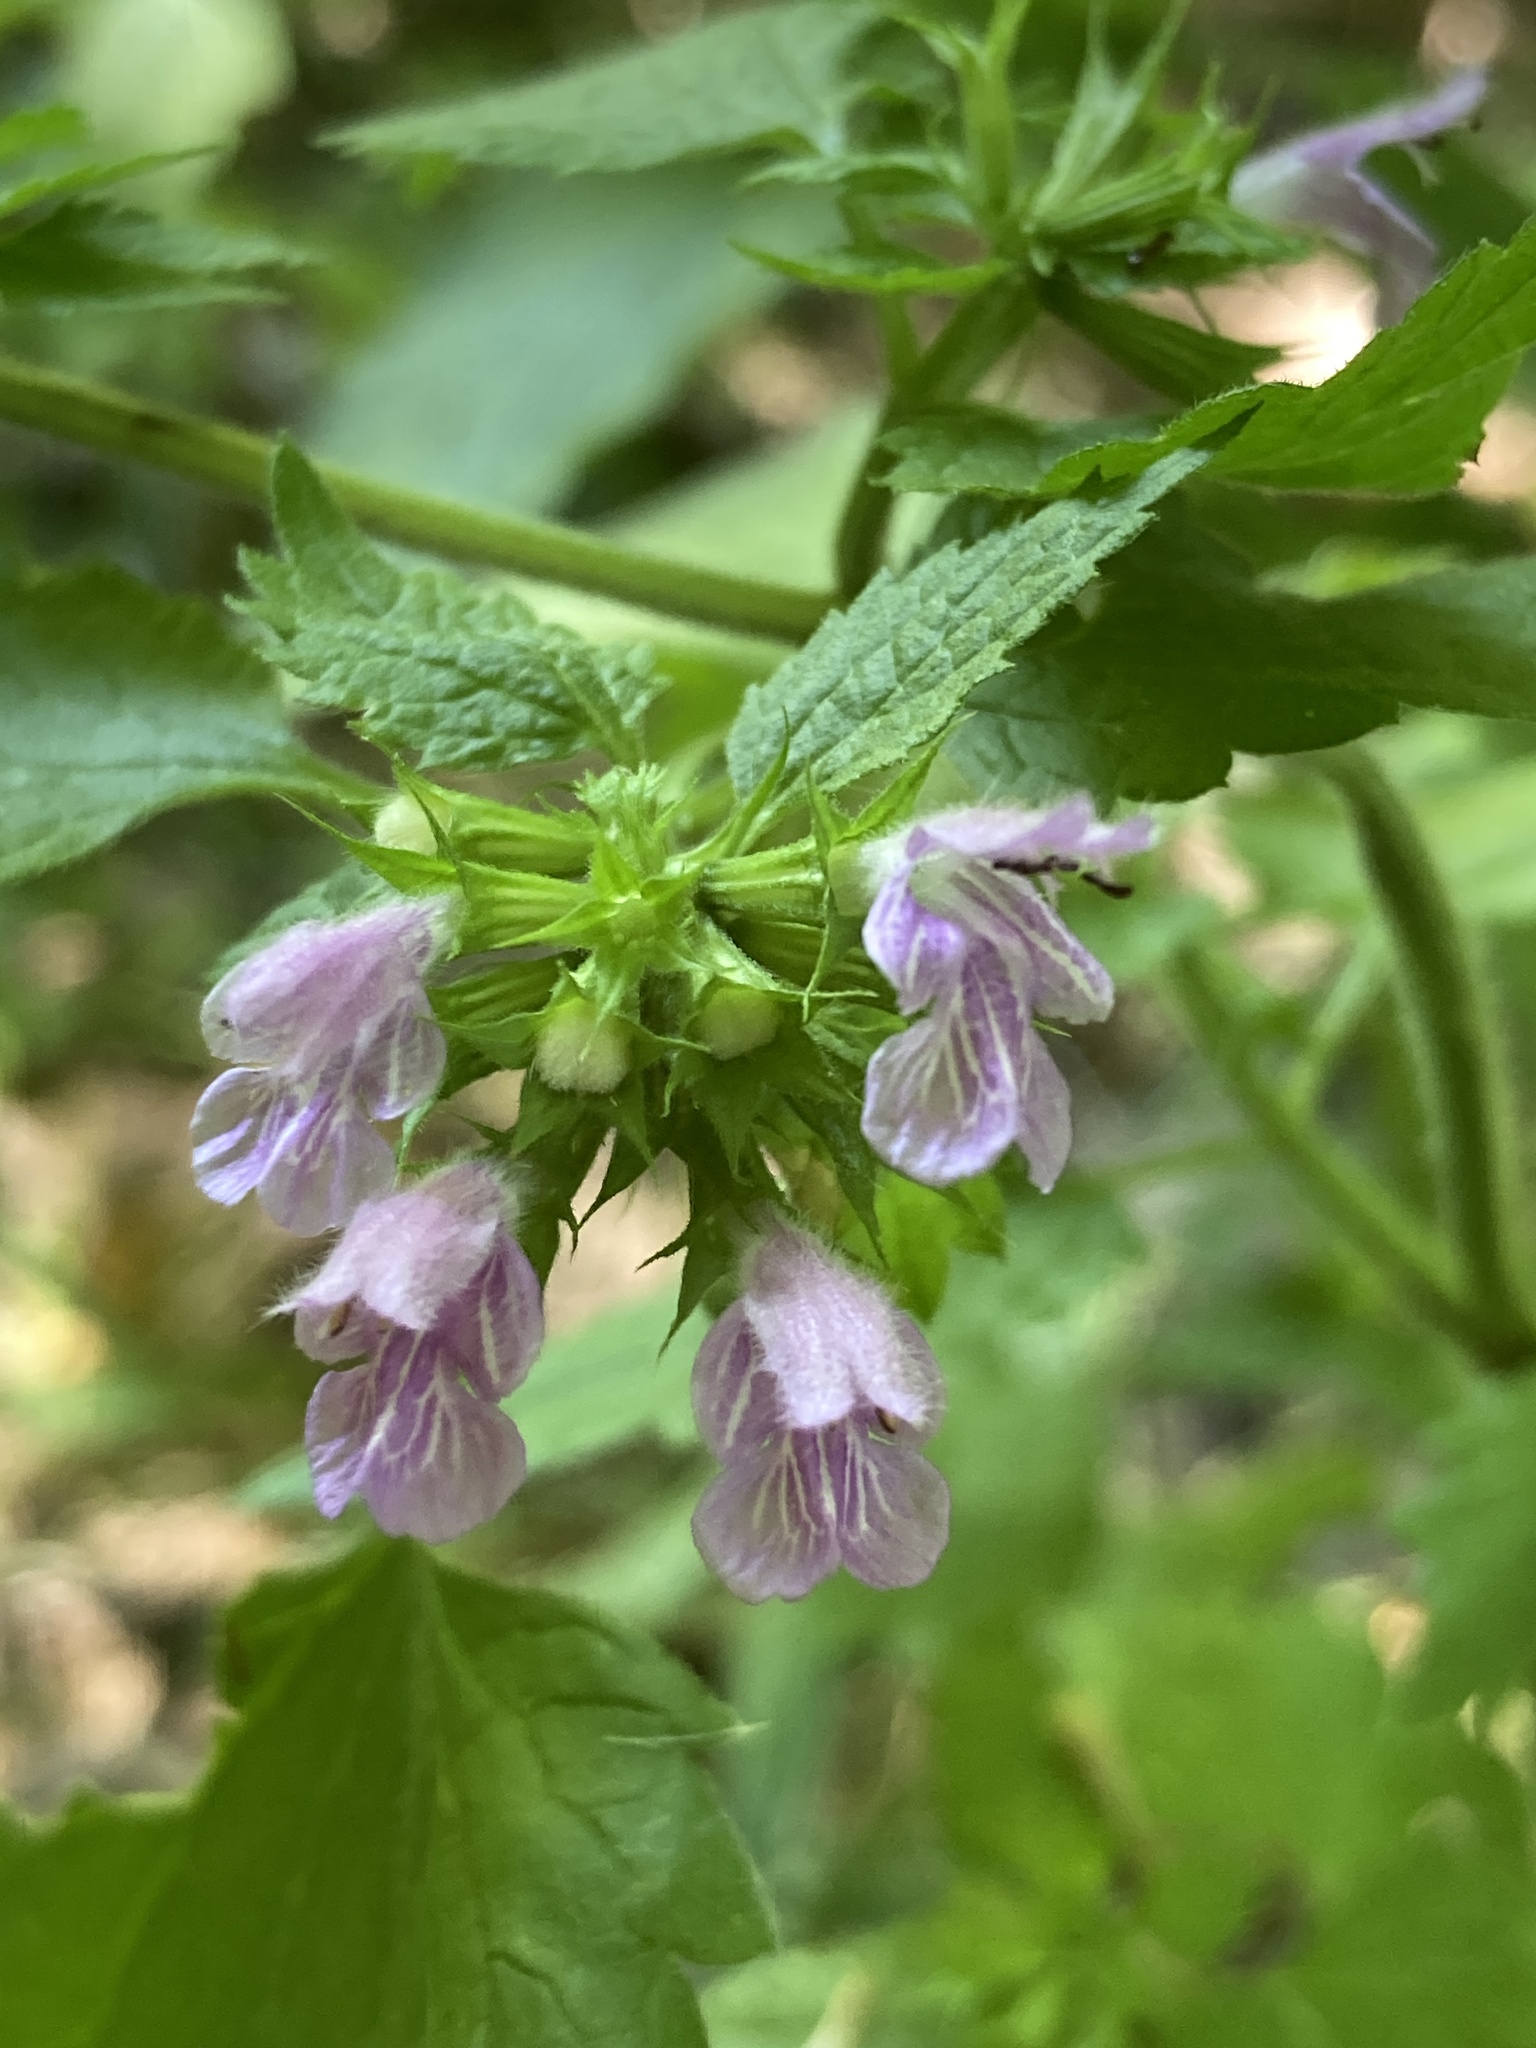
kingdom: Plantae
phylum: Tracheophyta
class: Magnoliopsida
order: Lamiales
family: Lamiaceae
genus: Ballota
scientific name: Ballota nigra
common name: Black horehound
